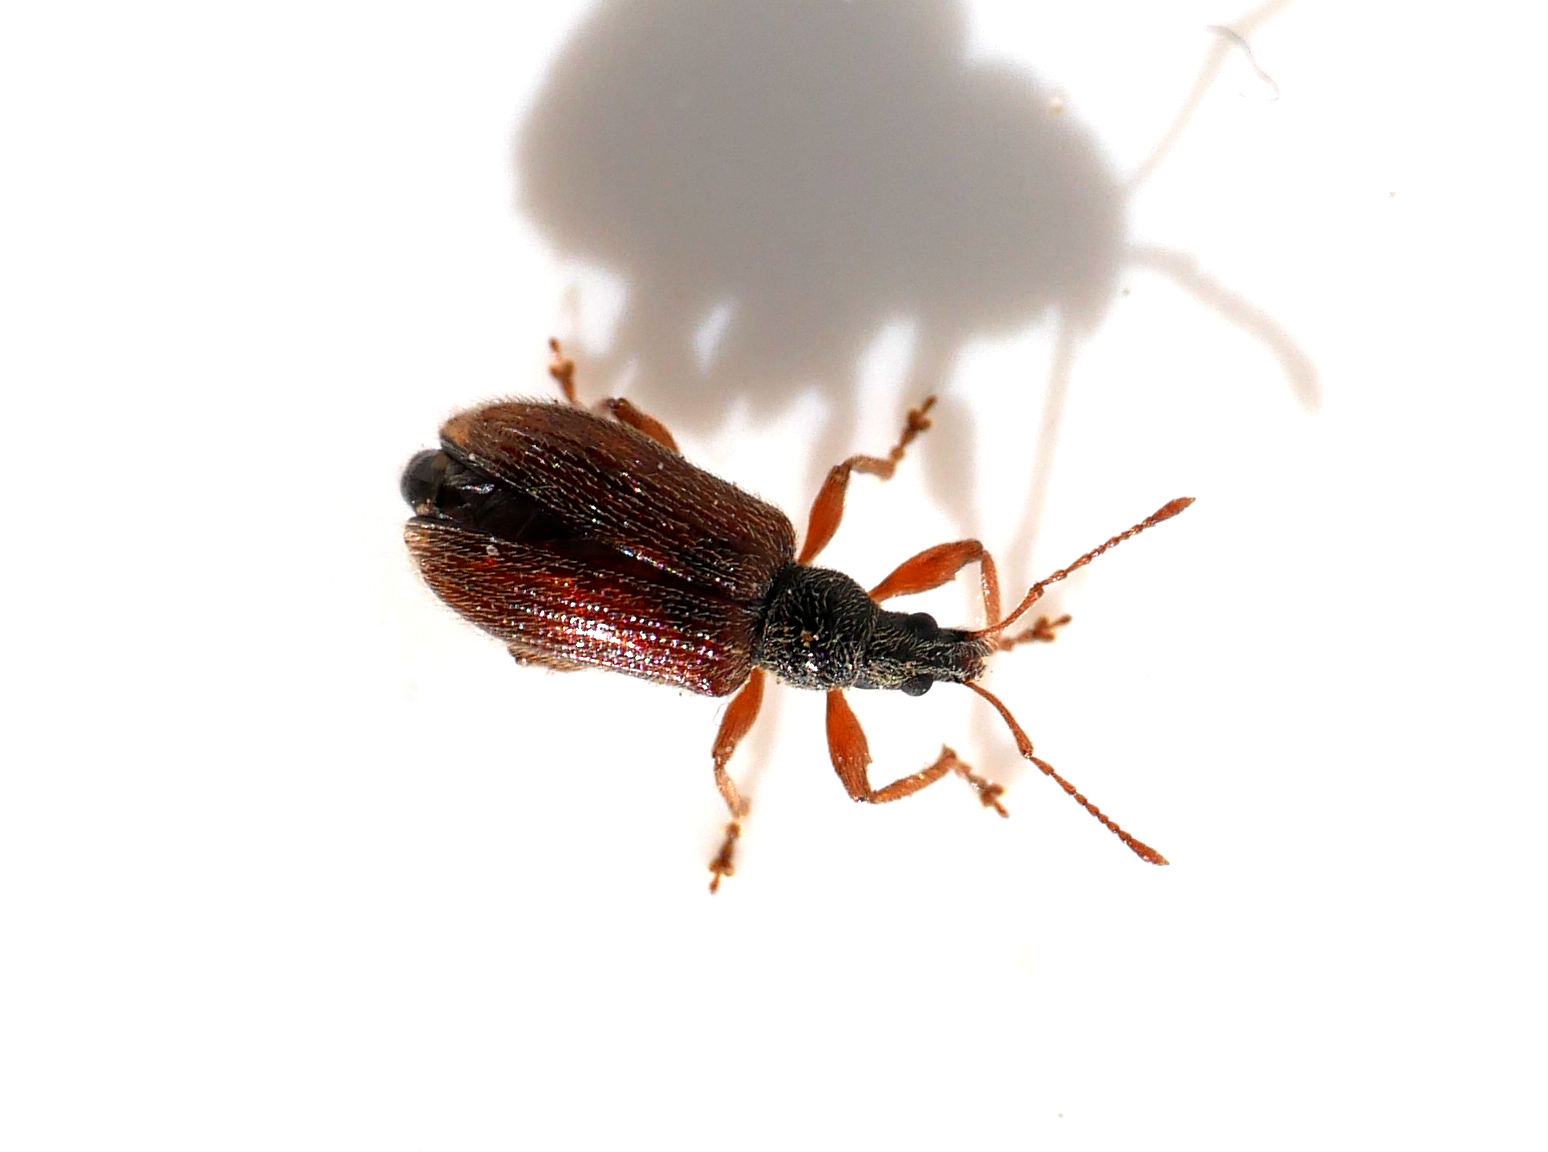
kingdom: Animalia
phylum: Arthropoda
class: Insecta
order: Coleoptera
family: Curculionidae
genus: Phyllobius
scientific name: Phyllobius oblongus
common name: Brown leaf weevil
